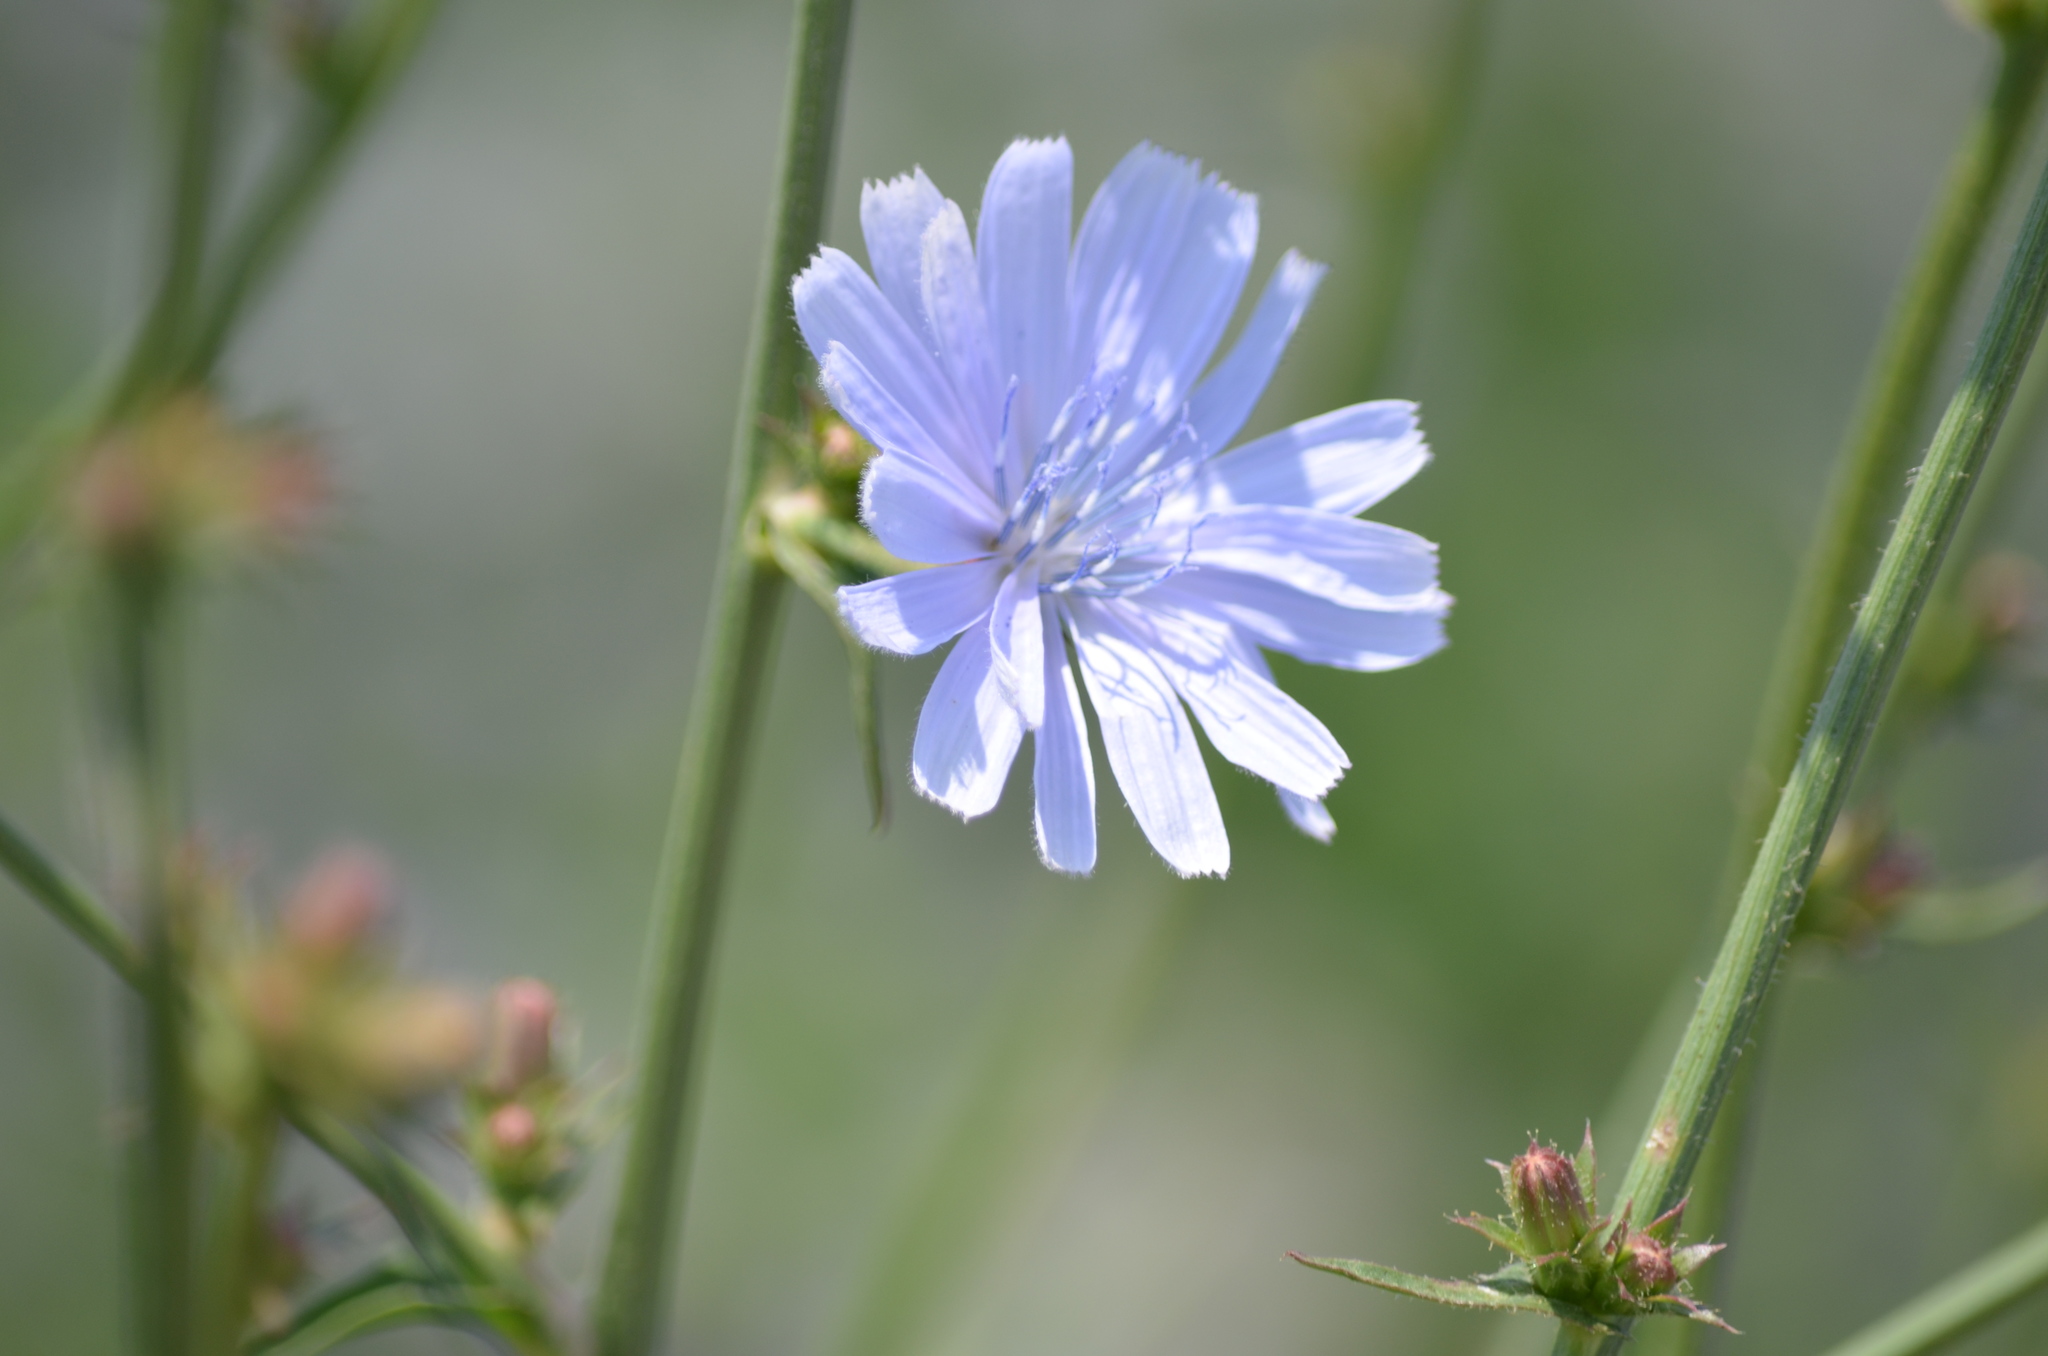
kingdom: Plantae
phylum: Tracheophyta
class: Magnoliopsida
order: Asterales
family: Asteraceae
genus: Cichorium
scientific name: Cichorium intybus
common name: Chicory
